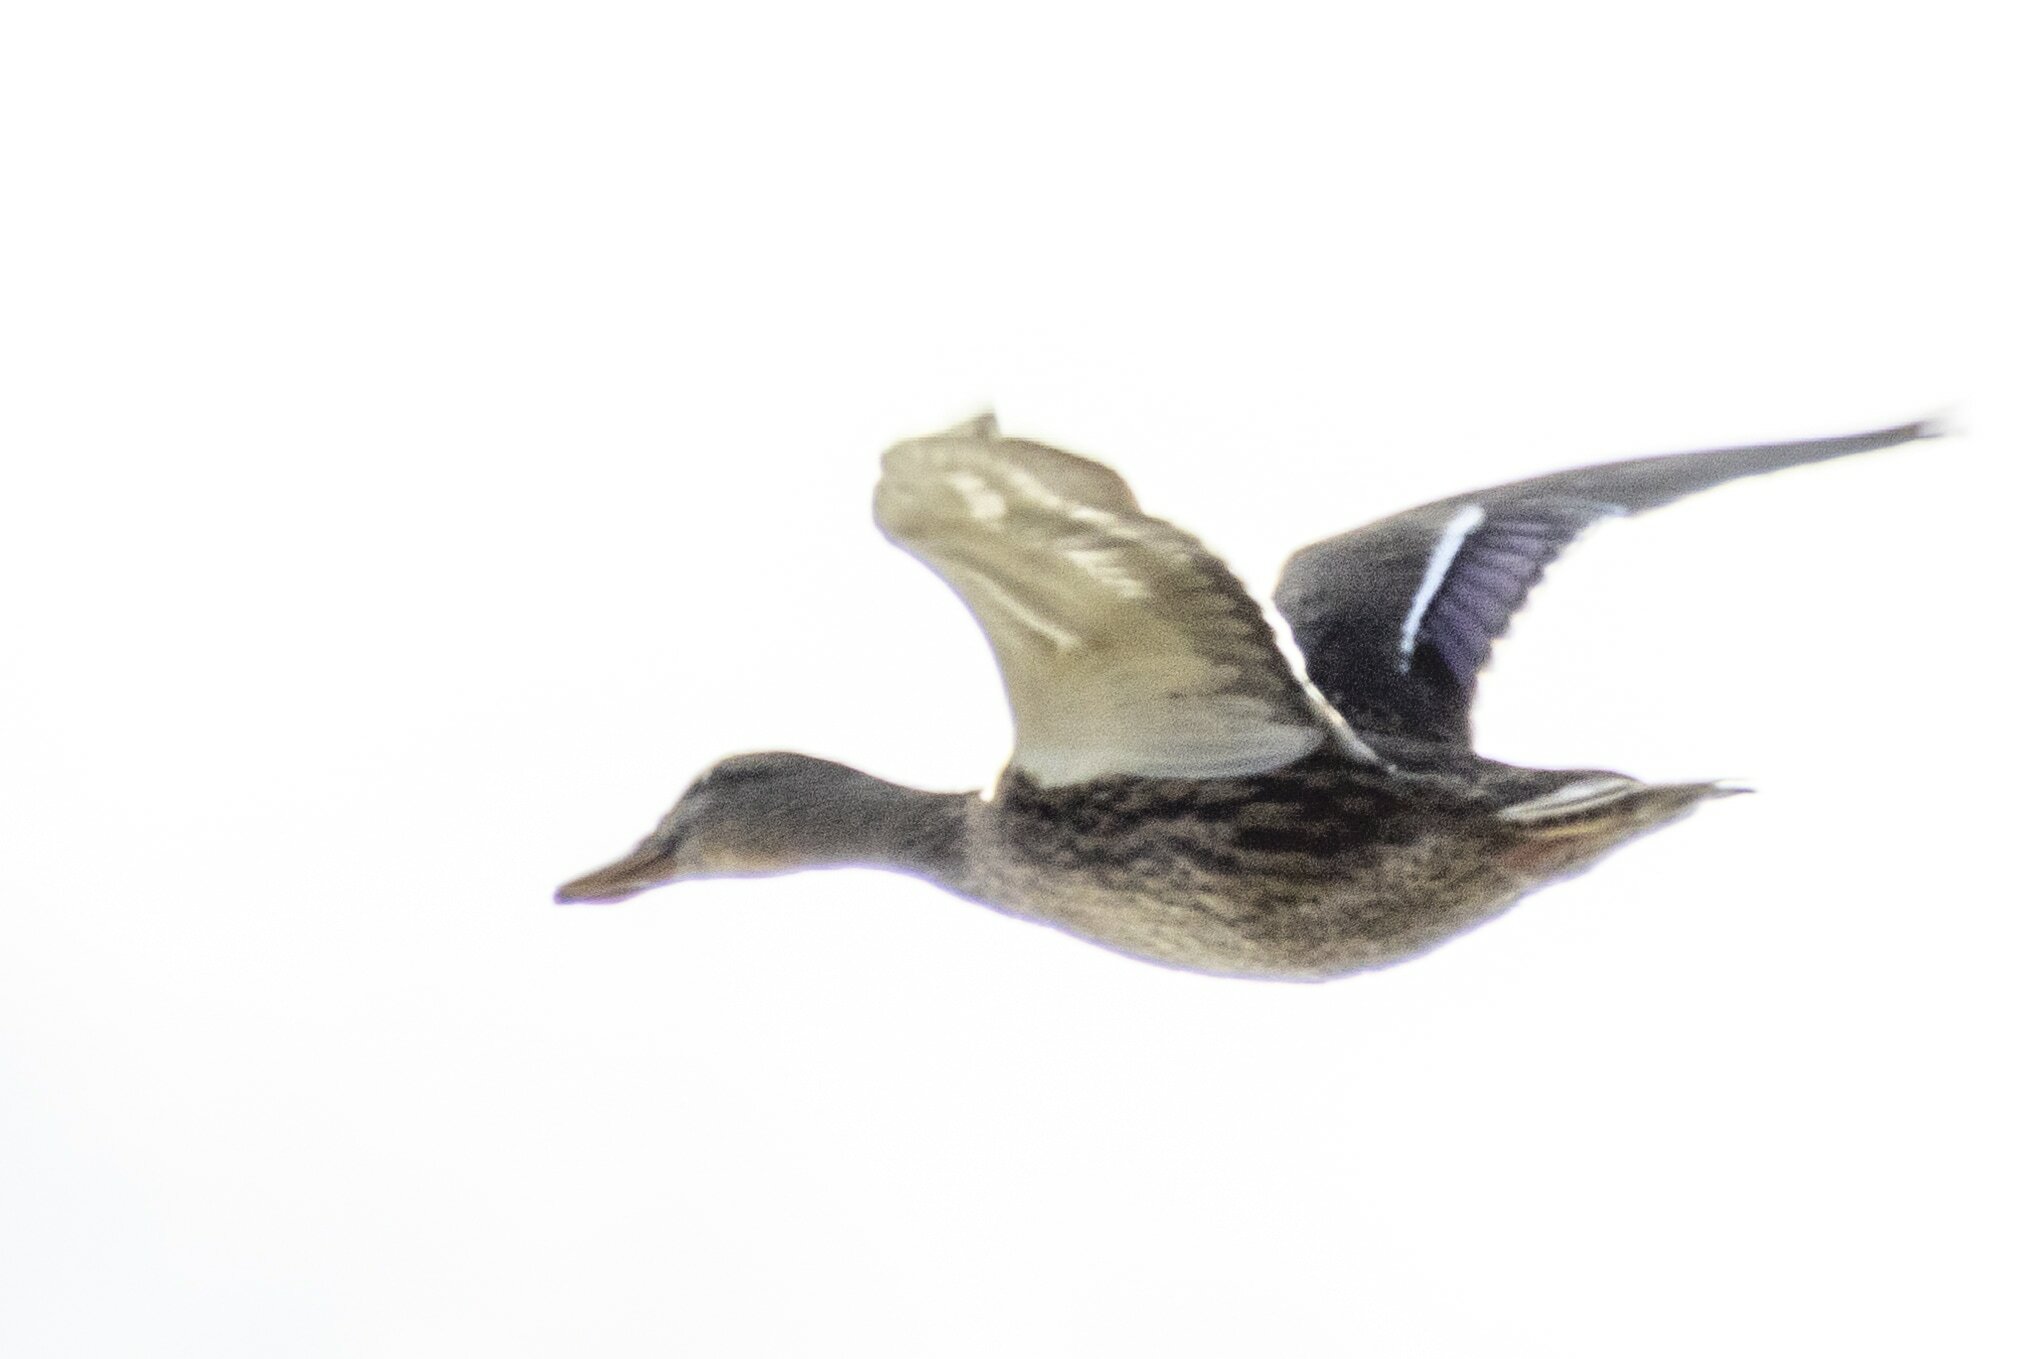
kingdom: Animalia
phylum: Chordata
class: Aves
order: Anseriformes
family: Anatidae
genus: Anas
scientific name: Anas platyrhynchos
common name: Mallard
